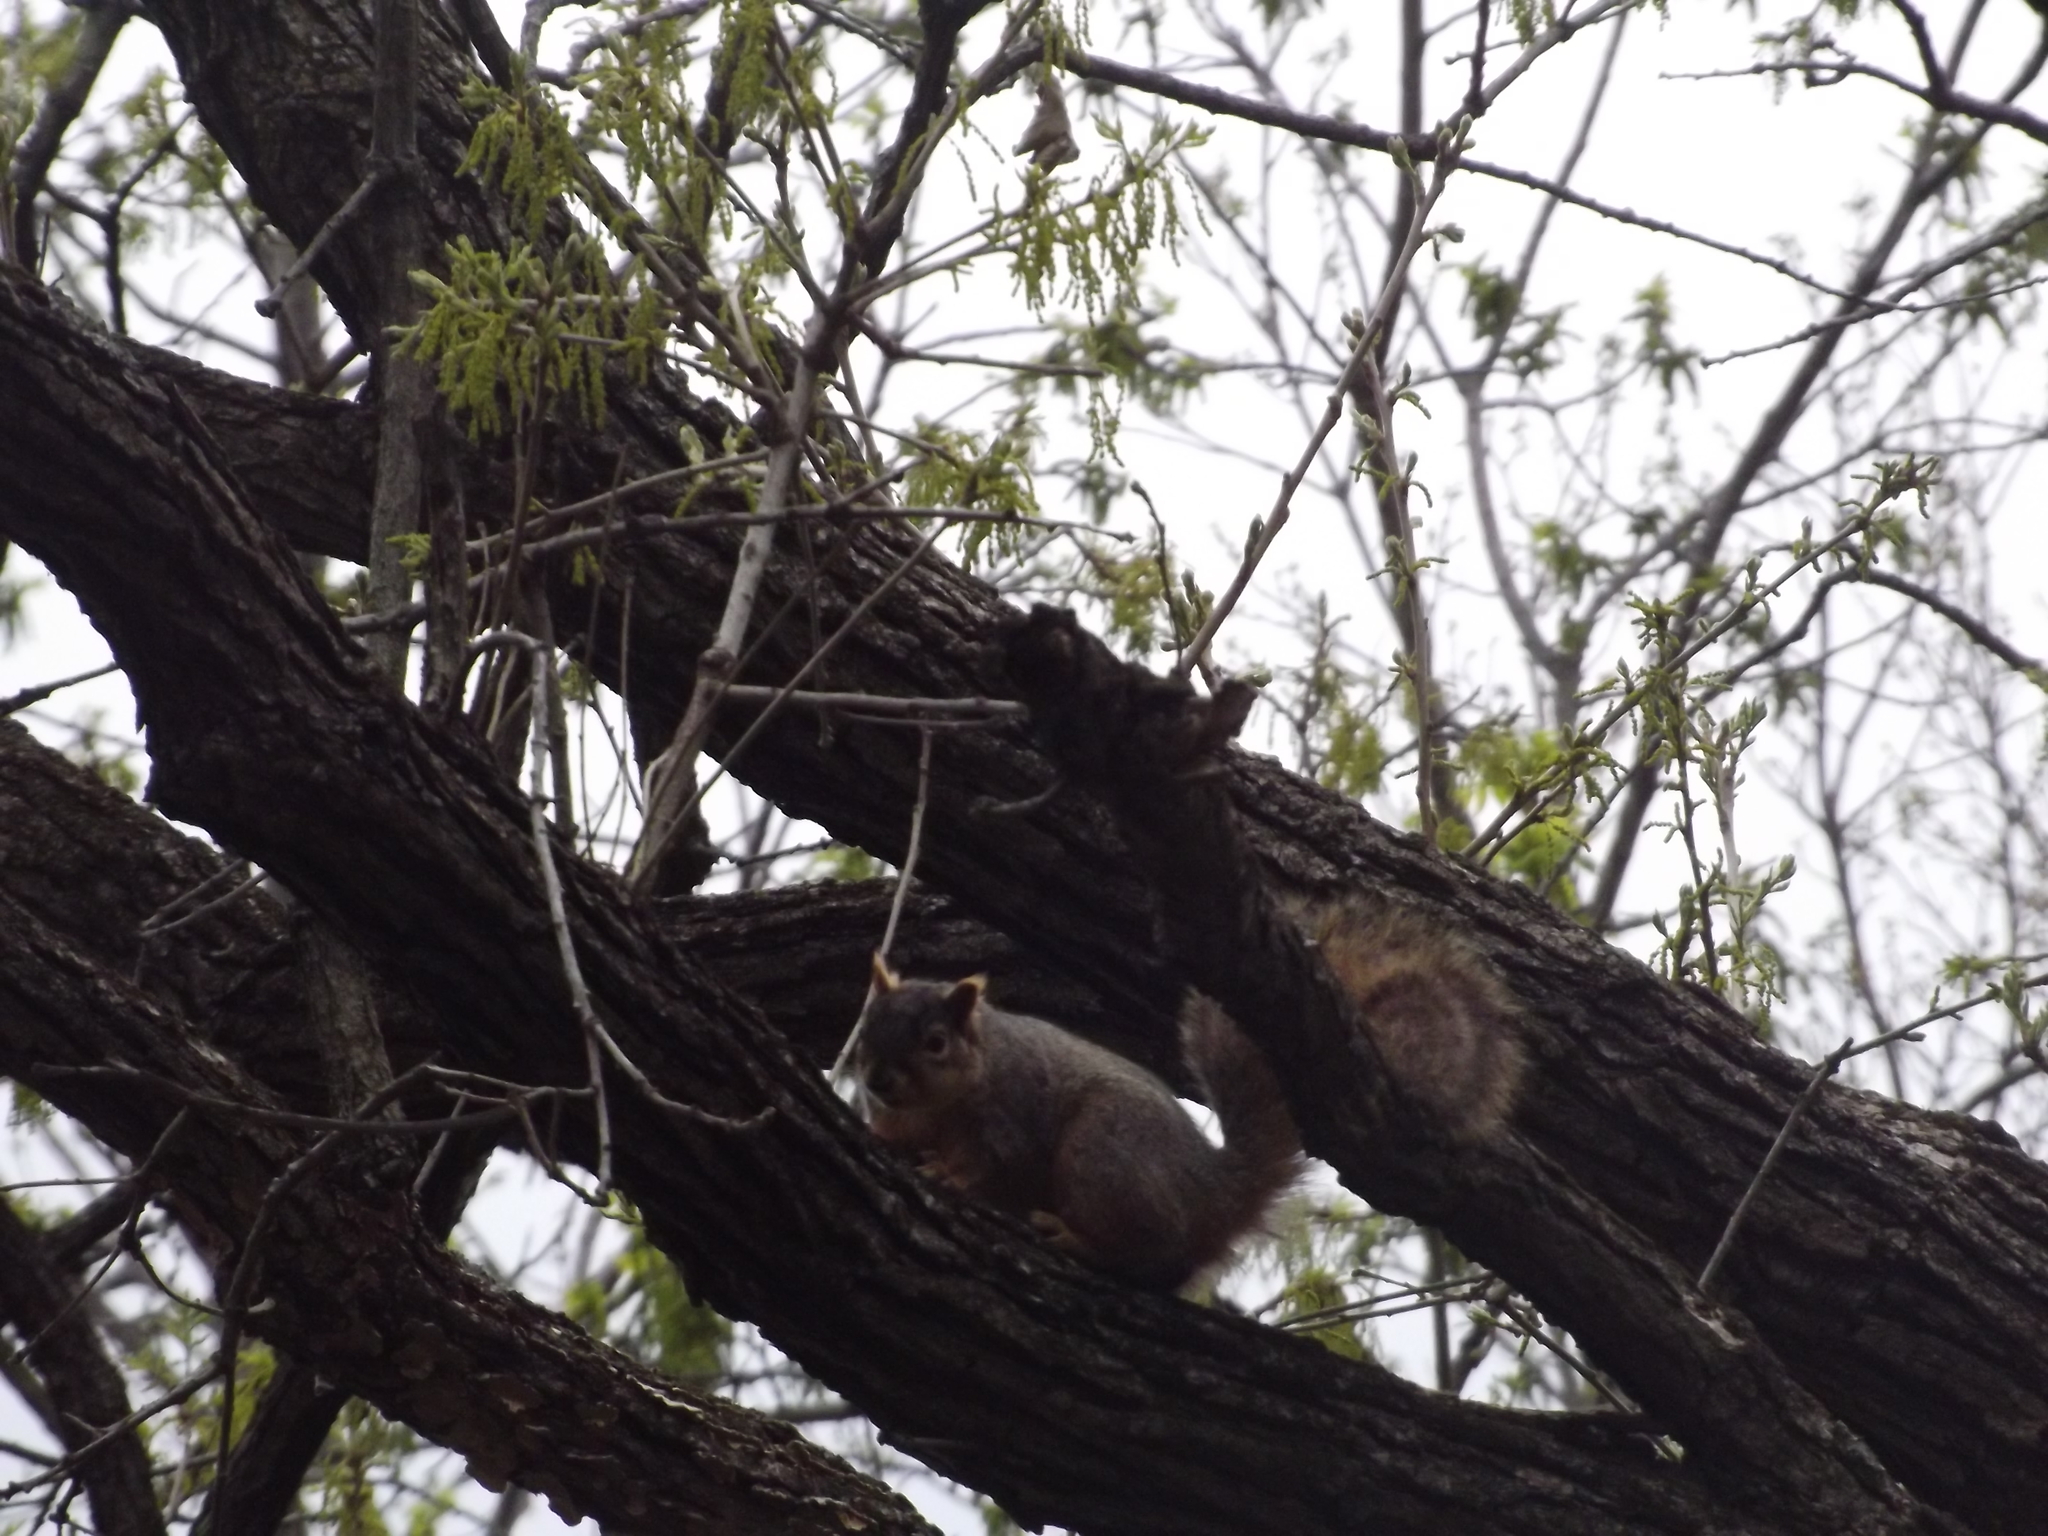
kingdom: Animalia
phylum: Chordata
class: Mammalia
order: Rodentia
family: Sciuridae
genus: Sciurus
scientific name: Sciurus niger
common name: Fox squirrel
